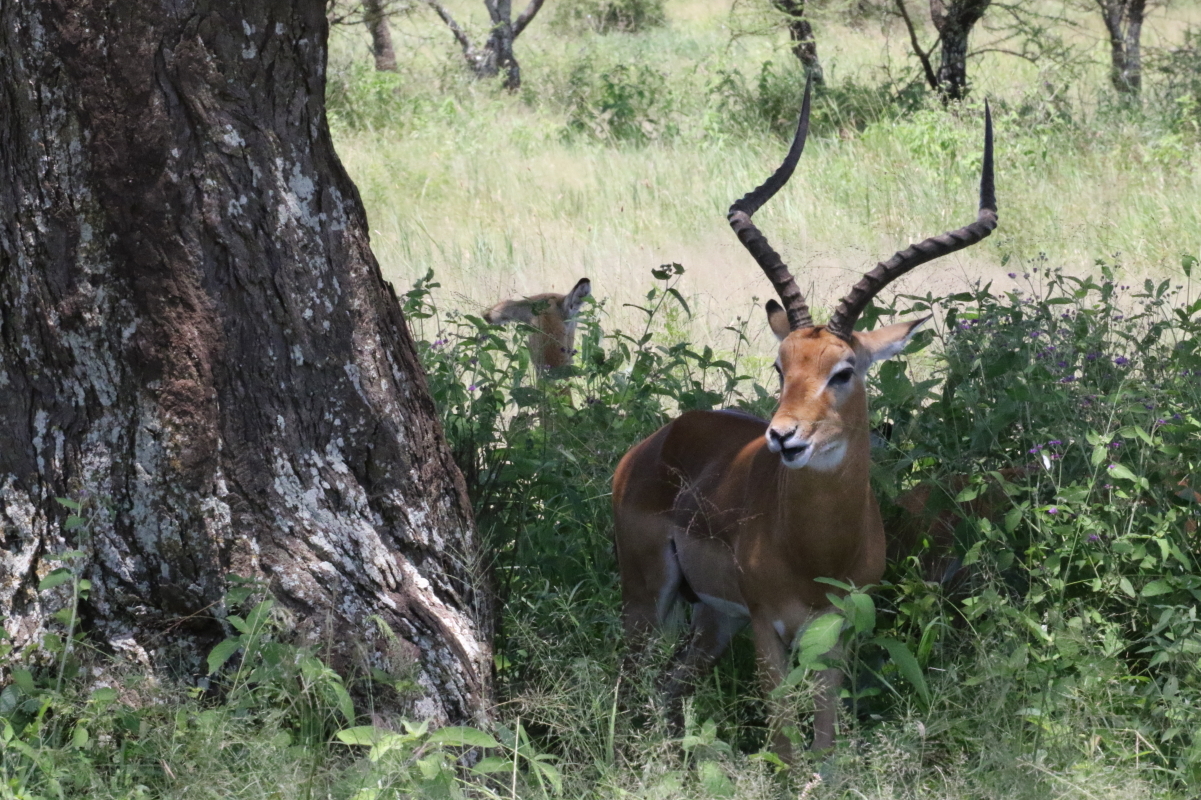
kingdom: Animalia
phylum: Chordata
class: Mammalia
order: Artiodactyla
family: Bovidae
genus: Aepyceros
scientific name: Aepyceros melampus
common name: Impala
